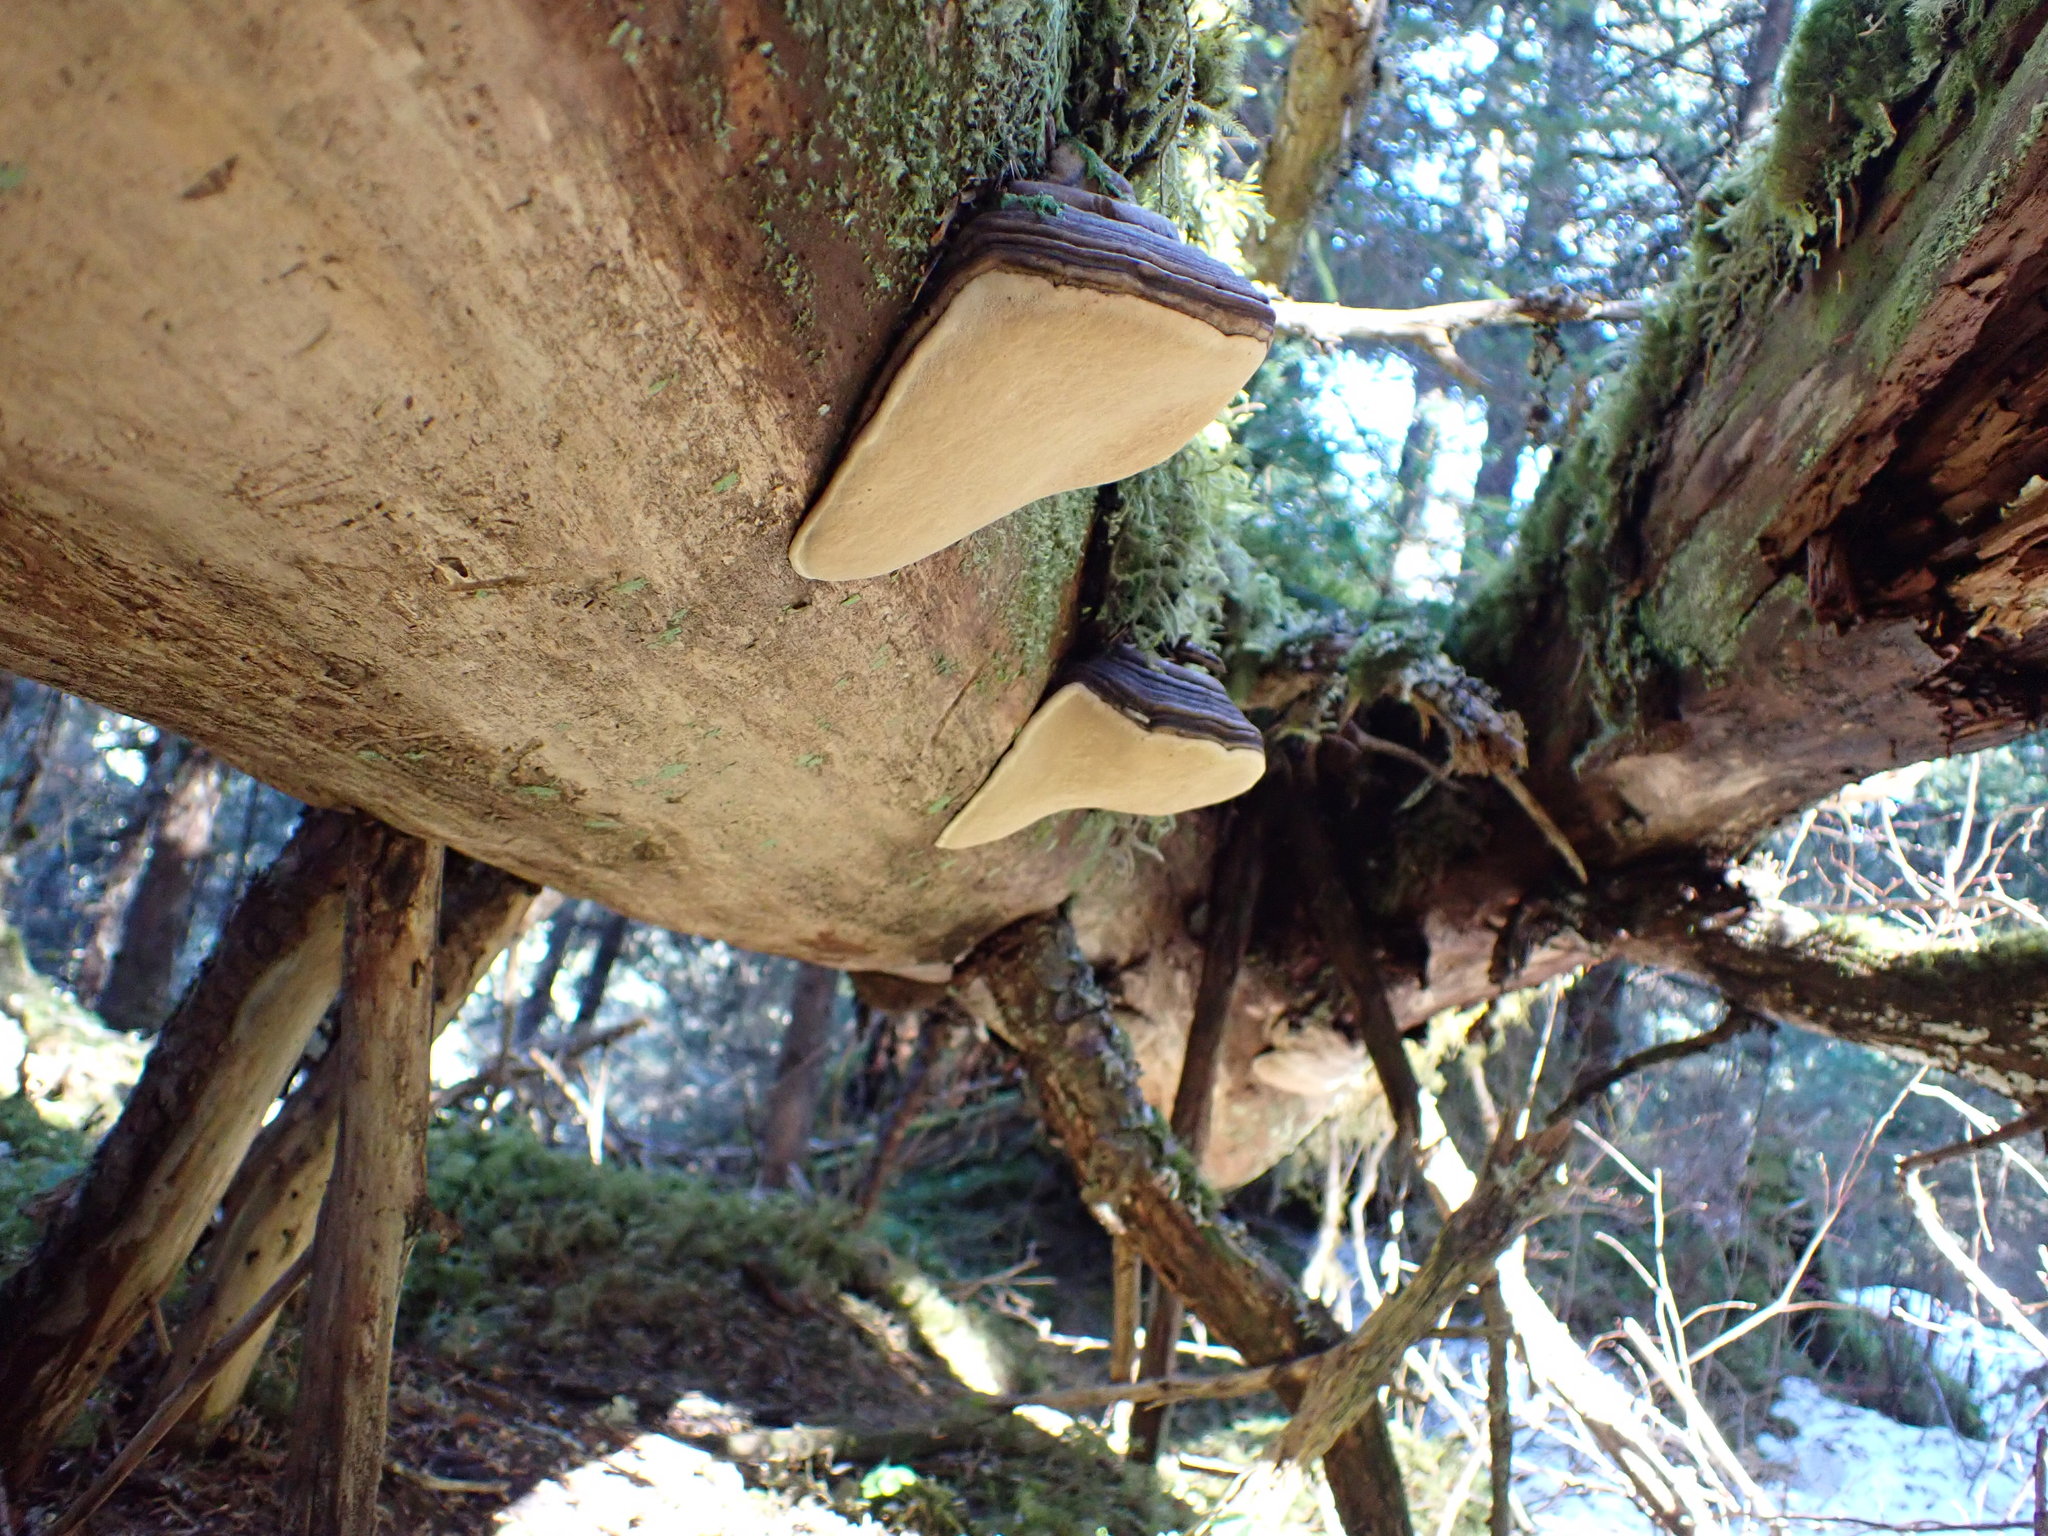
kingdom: Fungi
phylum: Basidiomycota
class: Agaricomycetes
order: Polyporales
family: Fomitopsidaceae
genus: Fomitopsis
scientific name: Fomitopsis ochracea
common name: American brown fomitopsis
